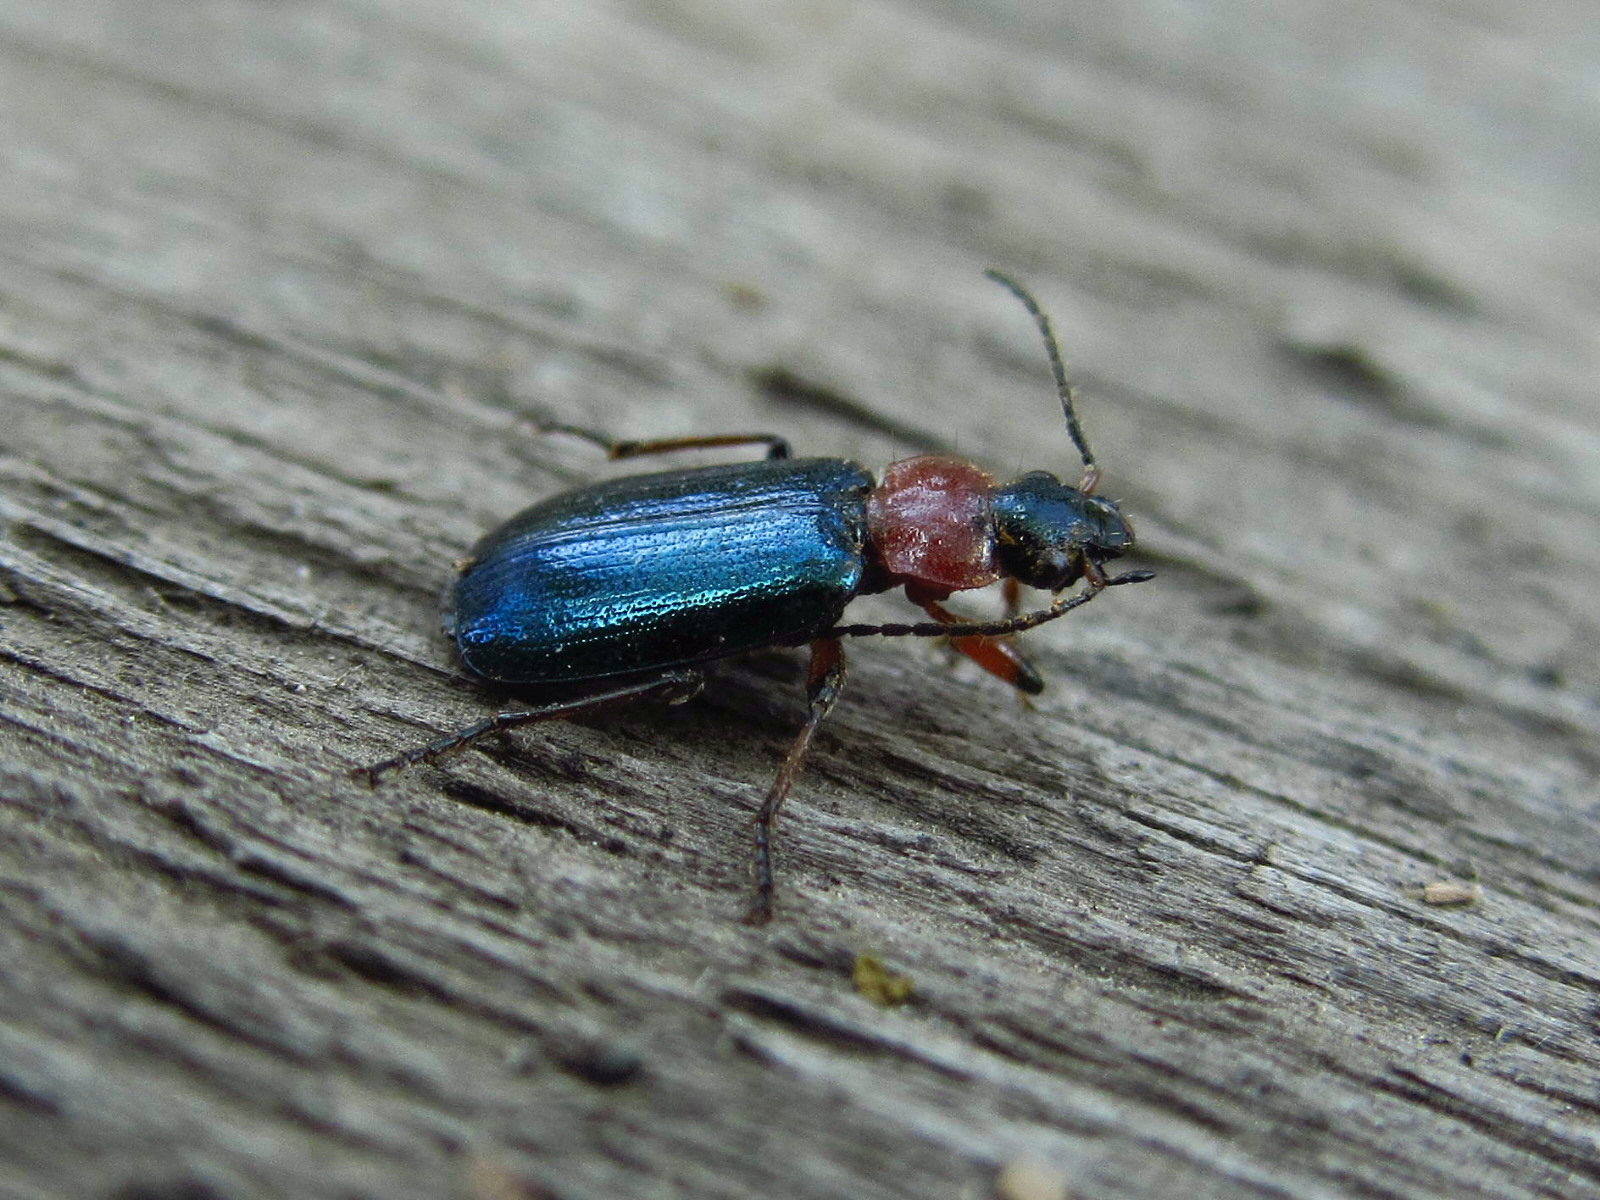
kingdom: Animalia
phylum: Arthropoda
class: Insecta
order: Coleoptera
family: Carabidae
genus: Lebia
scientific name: Lebia cyanocephala
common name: Blue plunderer
